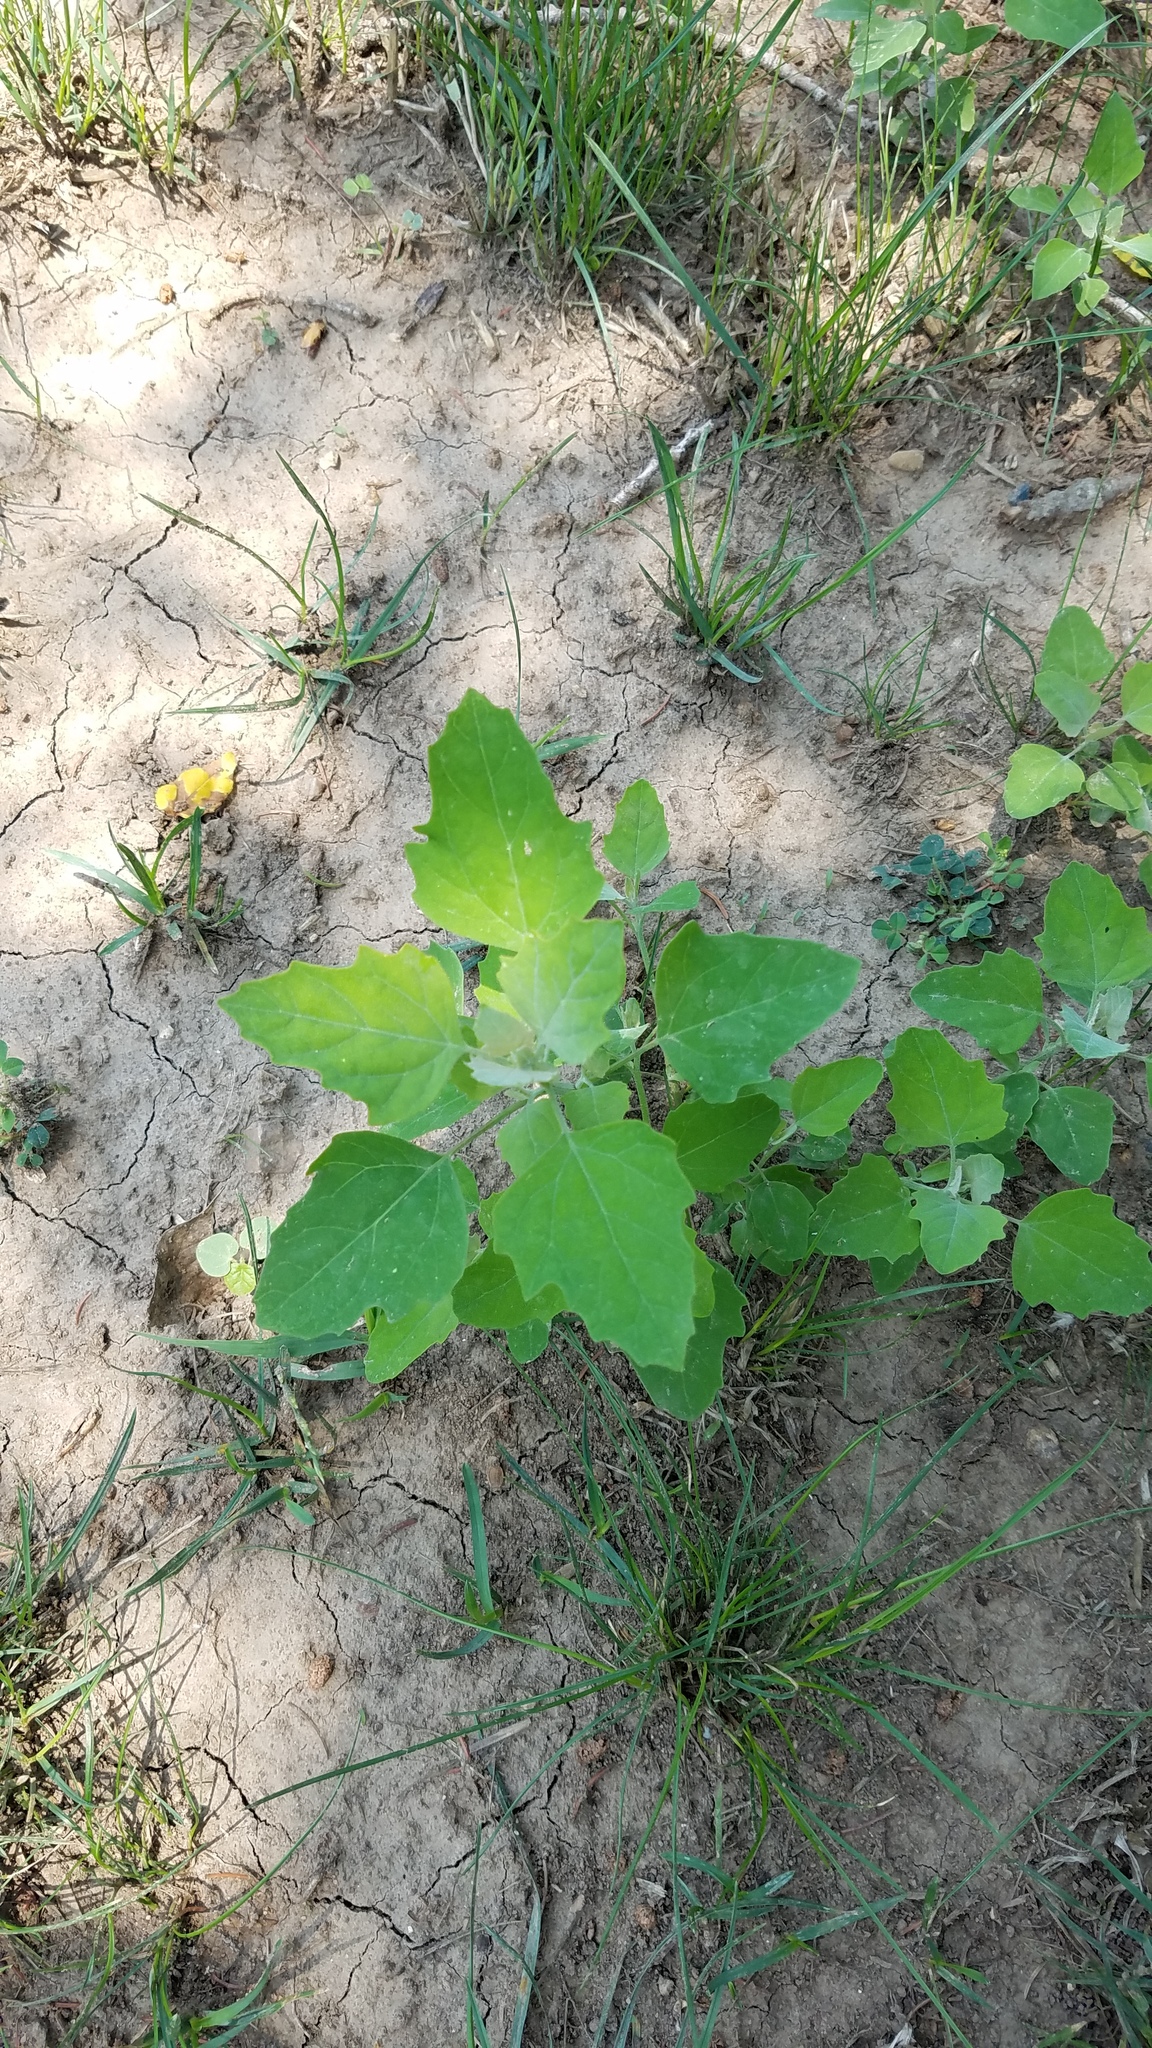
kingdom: Plantae
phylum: Tracheophyta
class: Magnoliopsida
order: Caryophyllales
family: Amaranthaceae
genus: Chenopodium
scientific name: Chenopodium album
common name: Fat-hen
